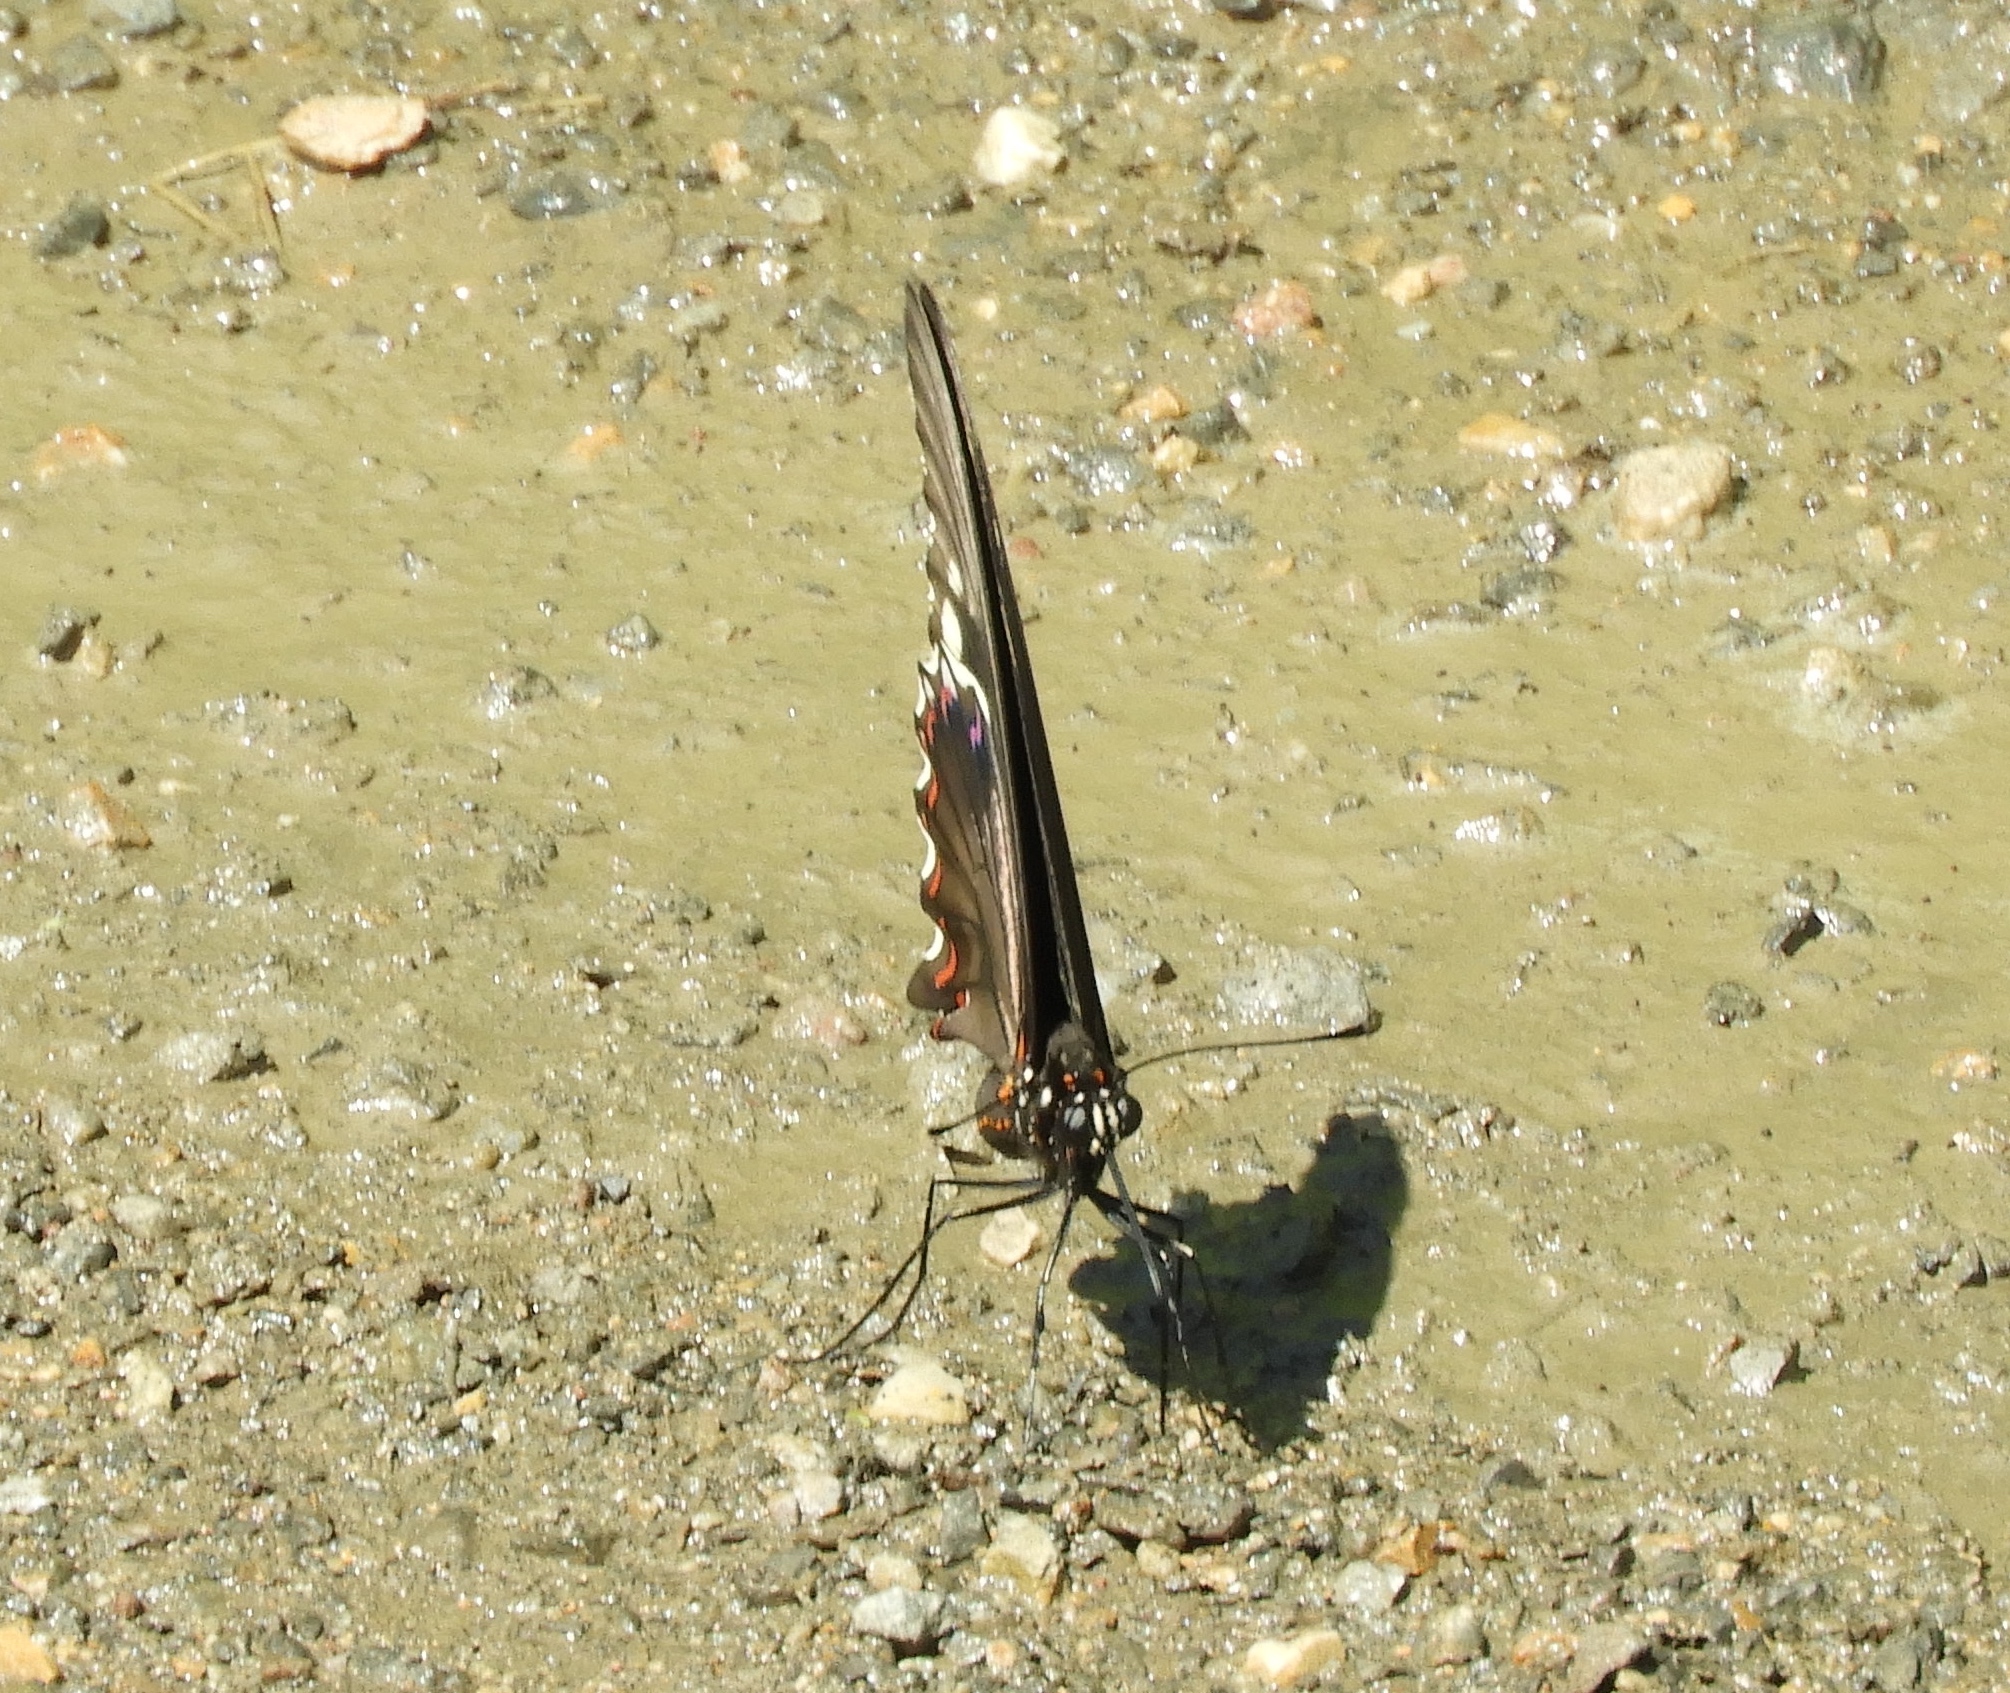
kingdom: Animalia
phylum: Arthropoda
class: Insecta
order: Lepidoptera
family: Papilionidae
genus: Battus
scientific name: Battus polydamas
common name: Polydamas swallowtail
